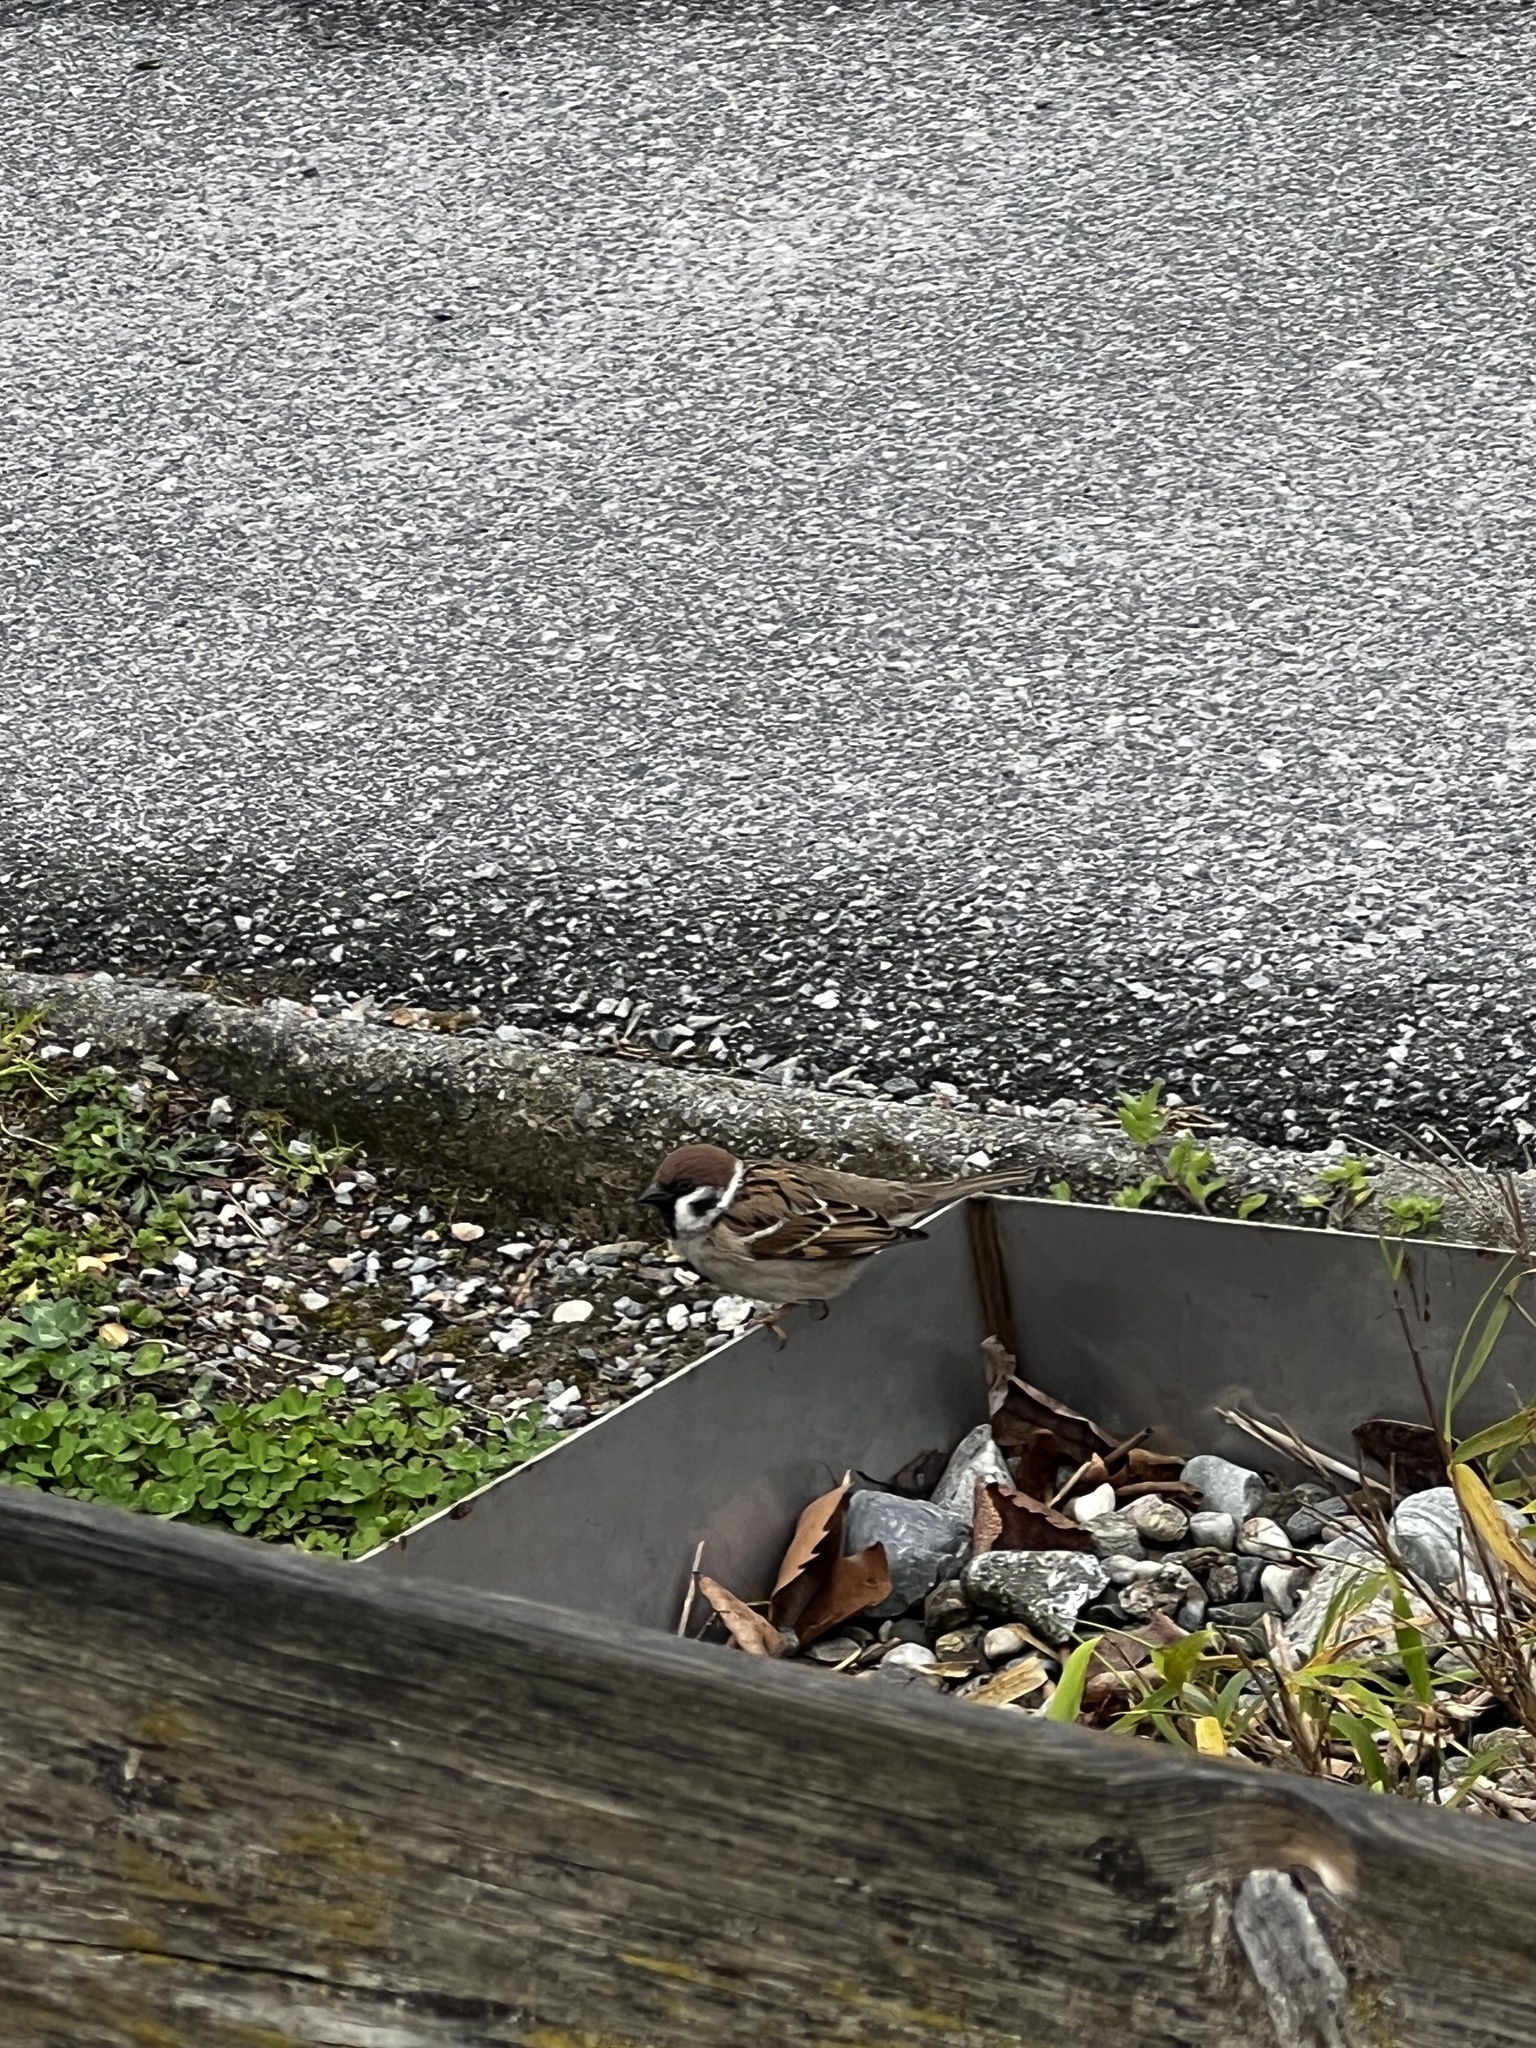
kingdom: Animalia
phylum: Chordata
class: Aves
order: Passeriformes
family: Passeridae
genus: Passer
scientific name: Passer montanus
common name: Eurasian tree sparrow
